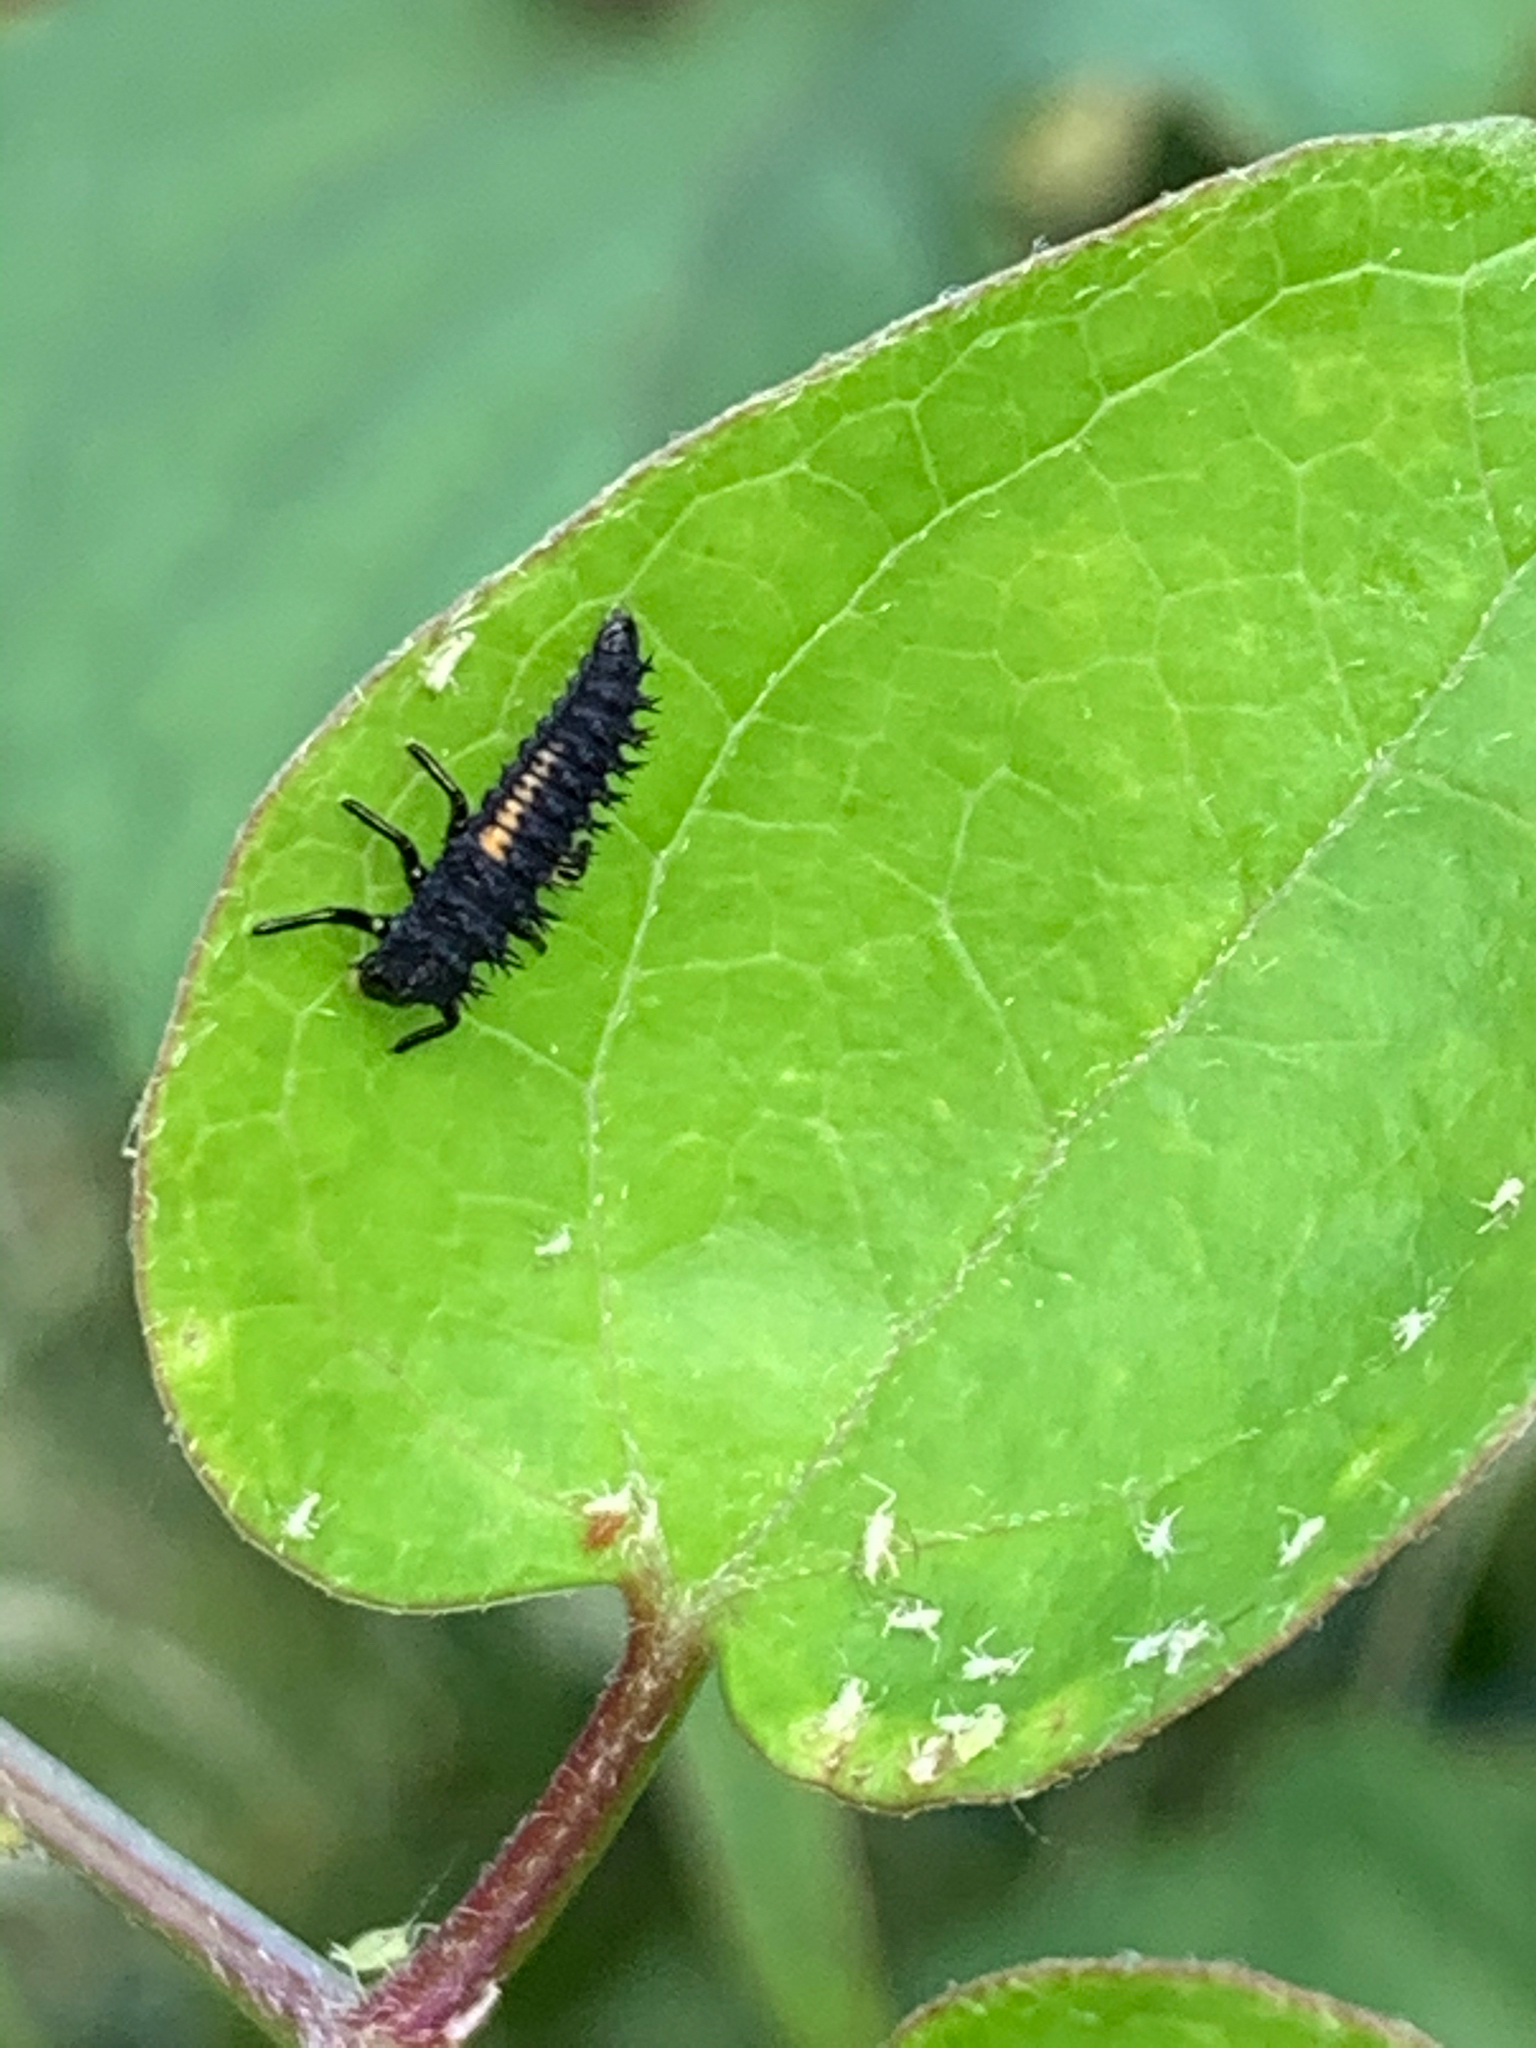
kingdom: Animalia
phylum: Arthropoda
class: Insecta
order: Coleoptera
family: Coccinellidae
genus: Harmonia
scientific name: Harmonia axyridis
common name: Harlequin ladybird
